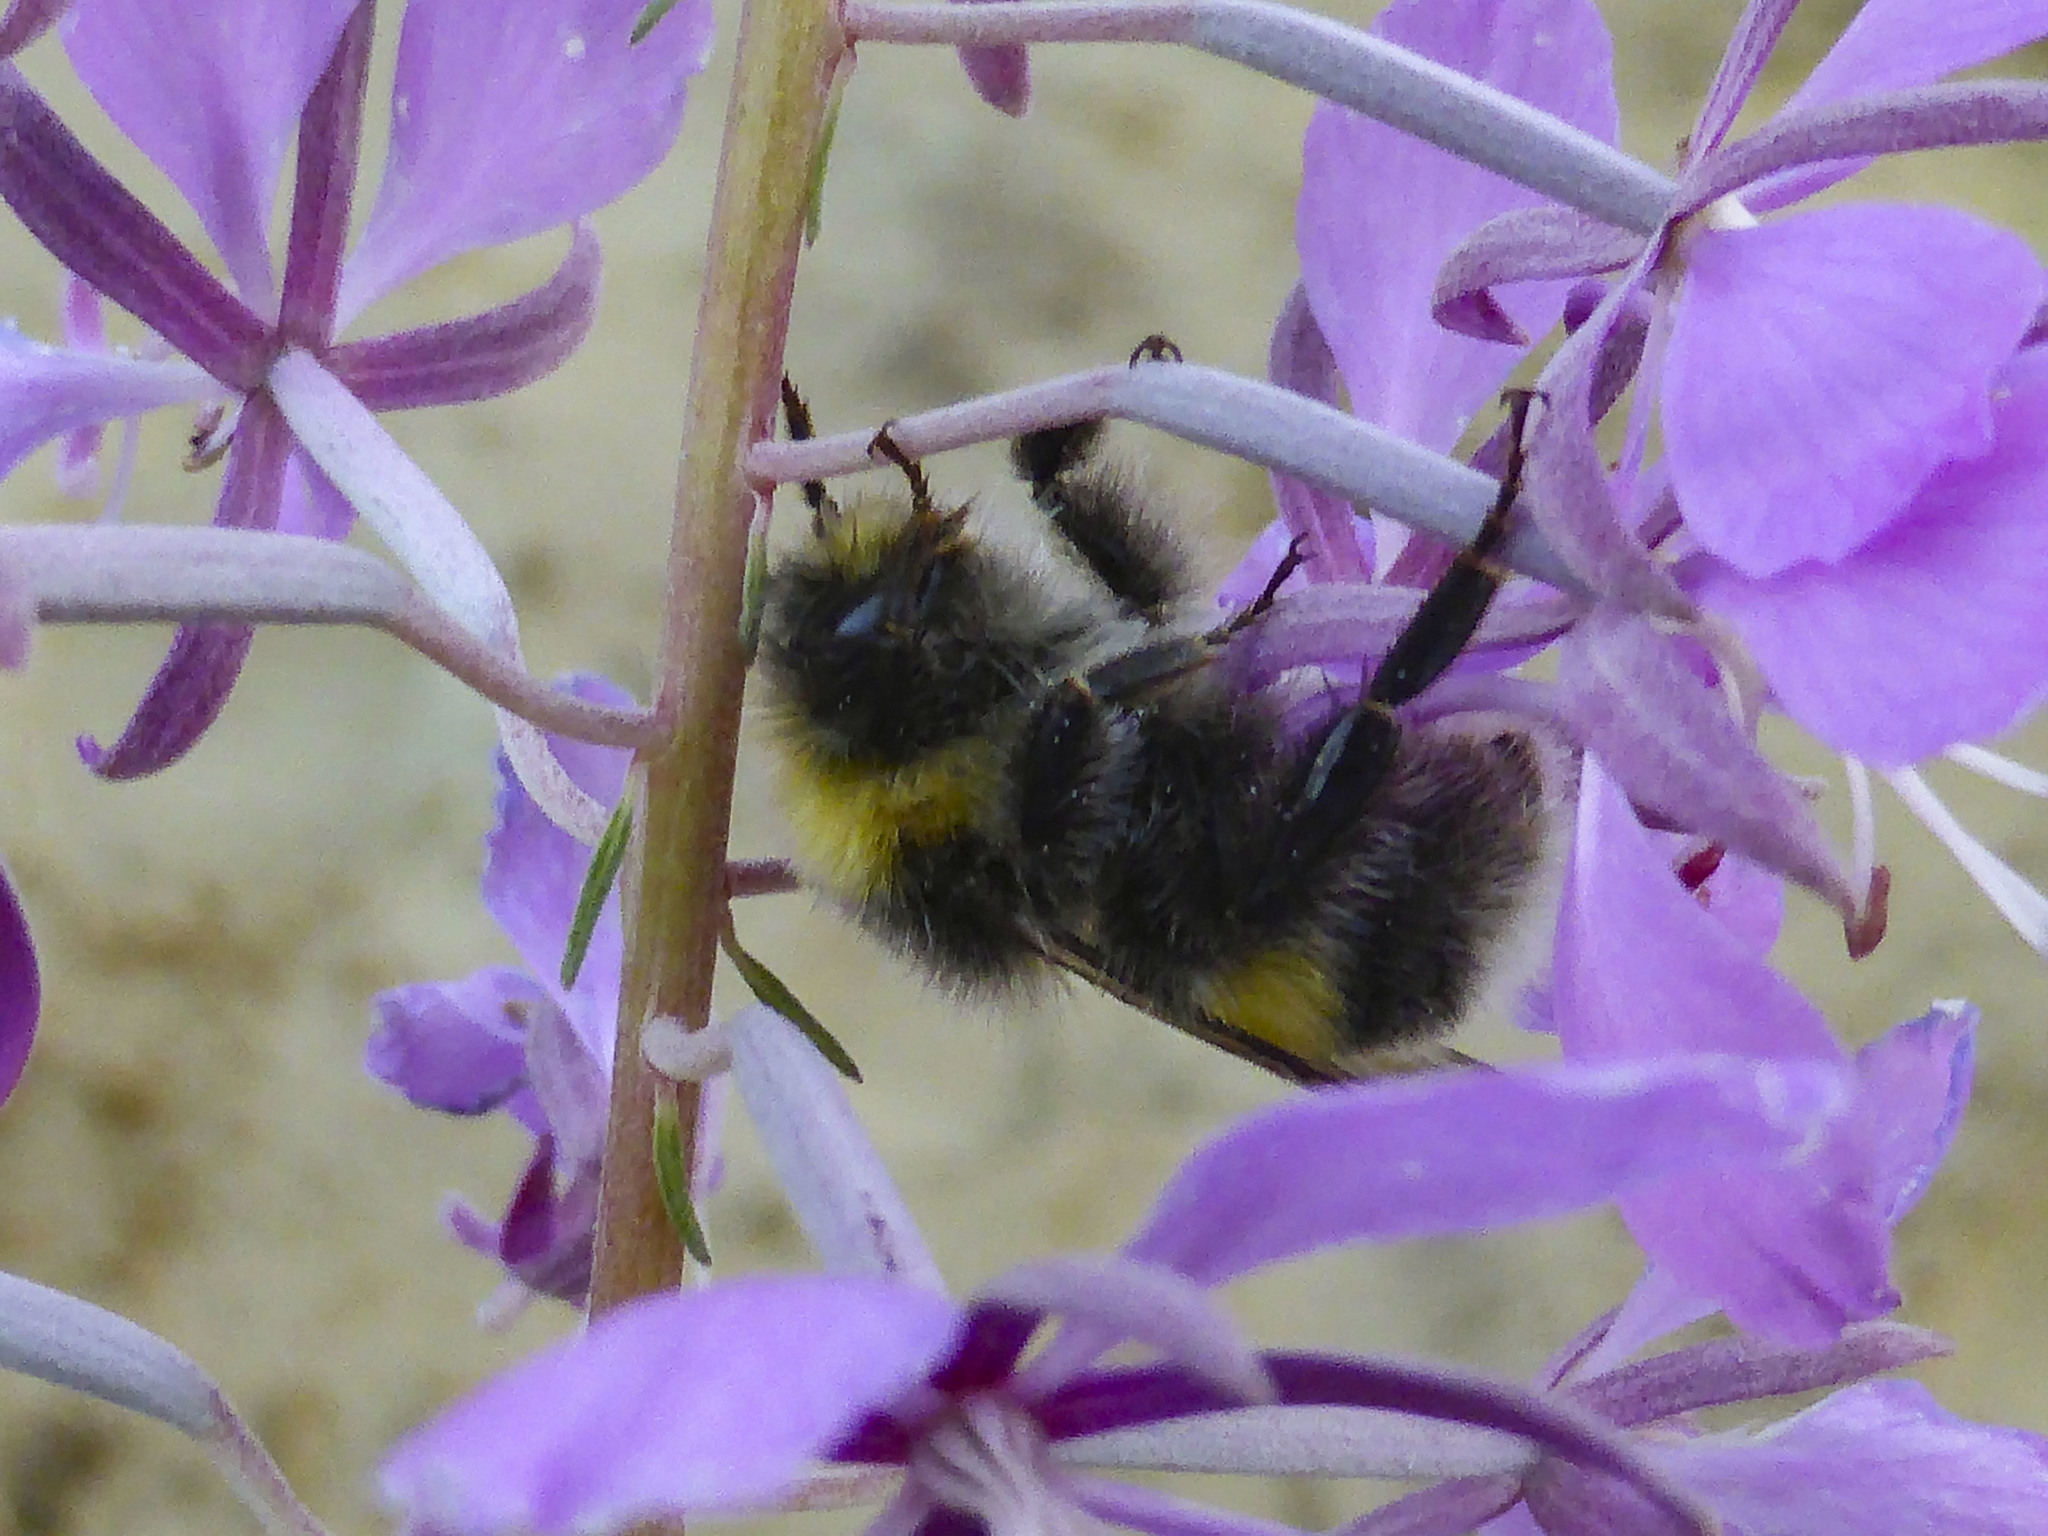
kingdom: Animalia
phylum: Arthropoda
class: Insecta
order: Hymenoptera
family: Apidae
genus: Bombus
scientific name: Bombus lucorum
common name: White-tailed bumblebee
